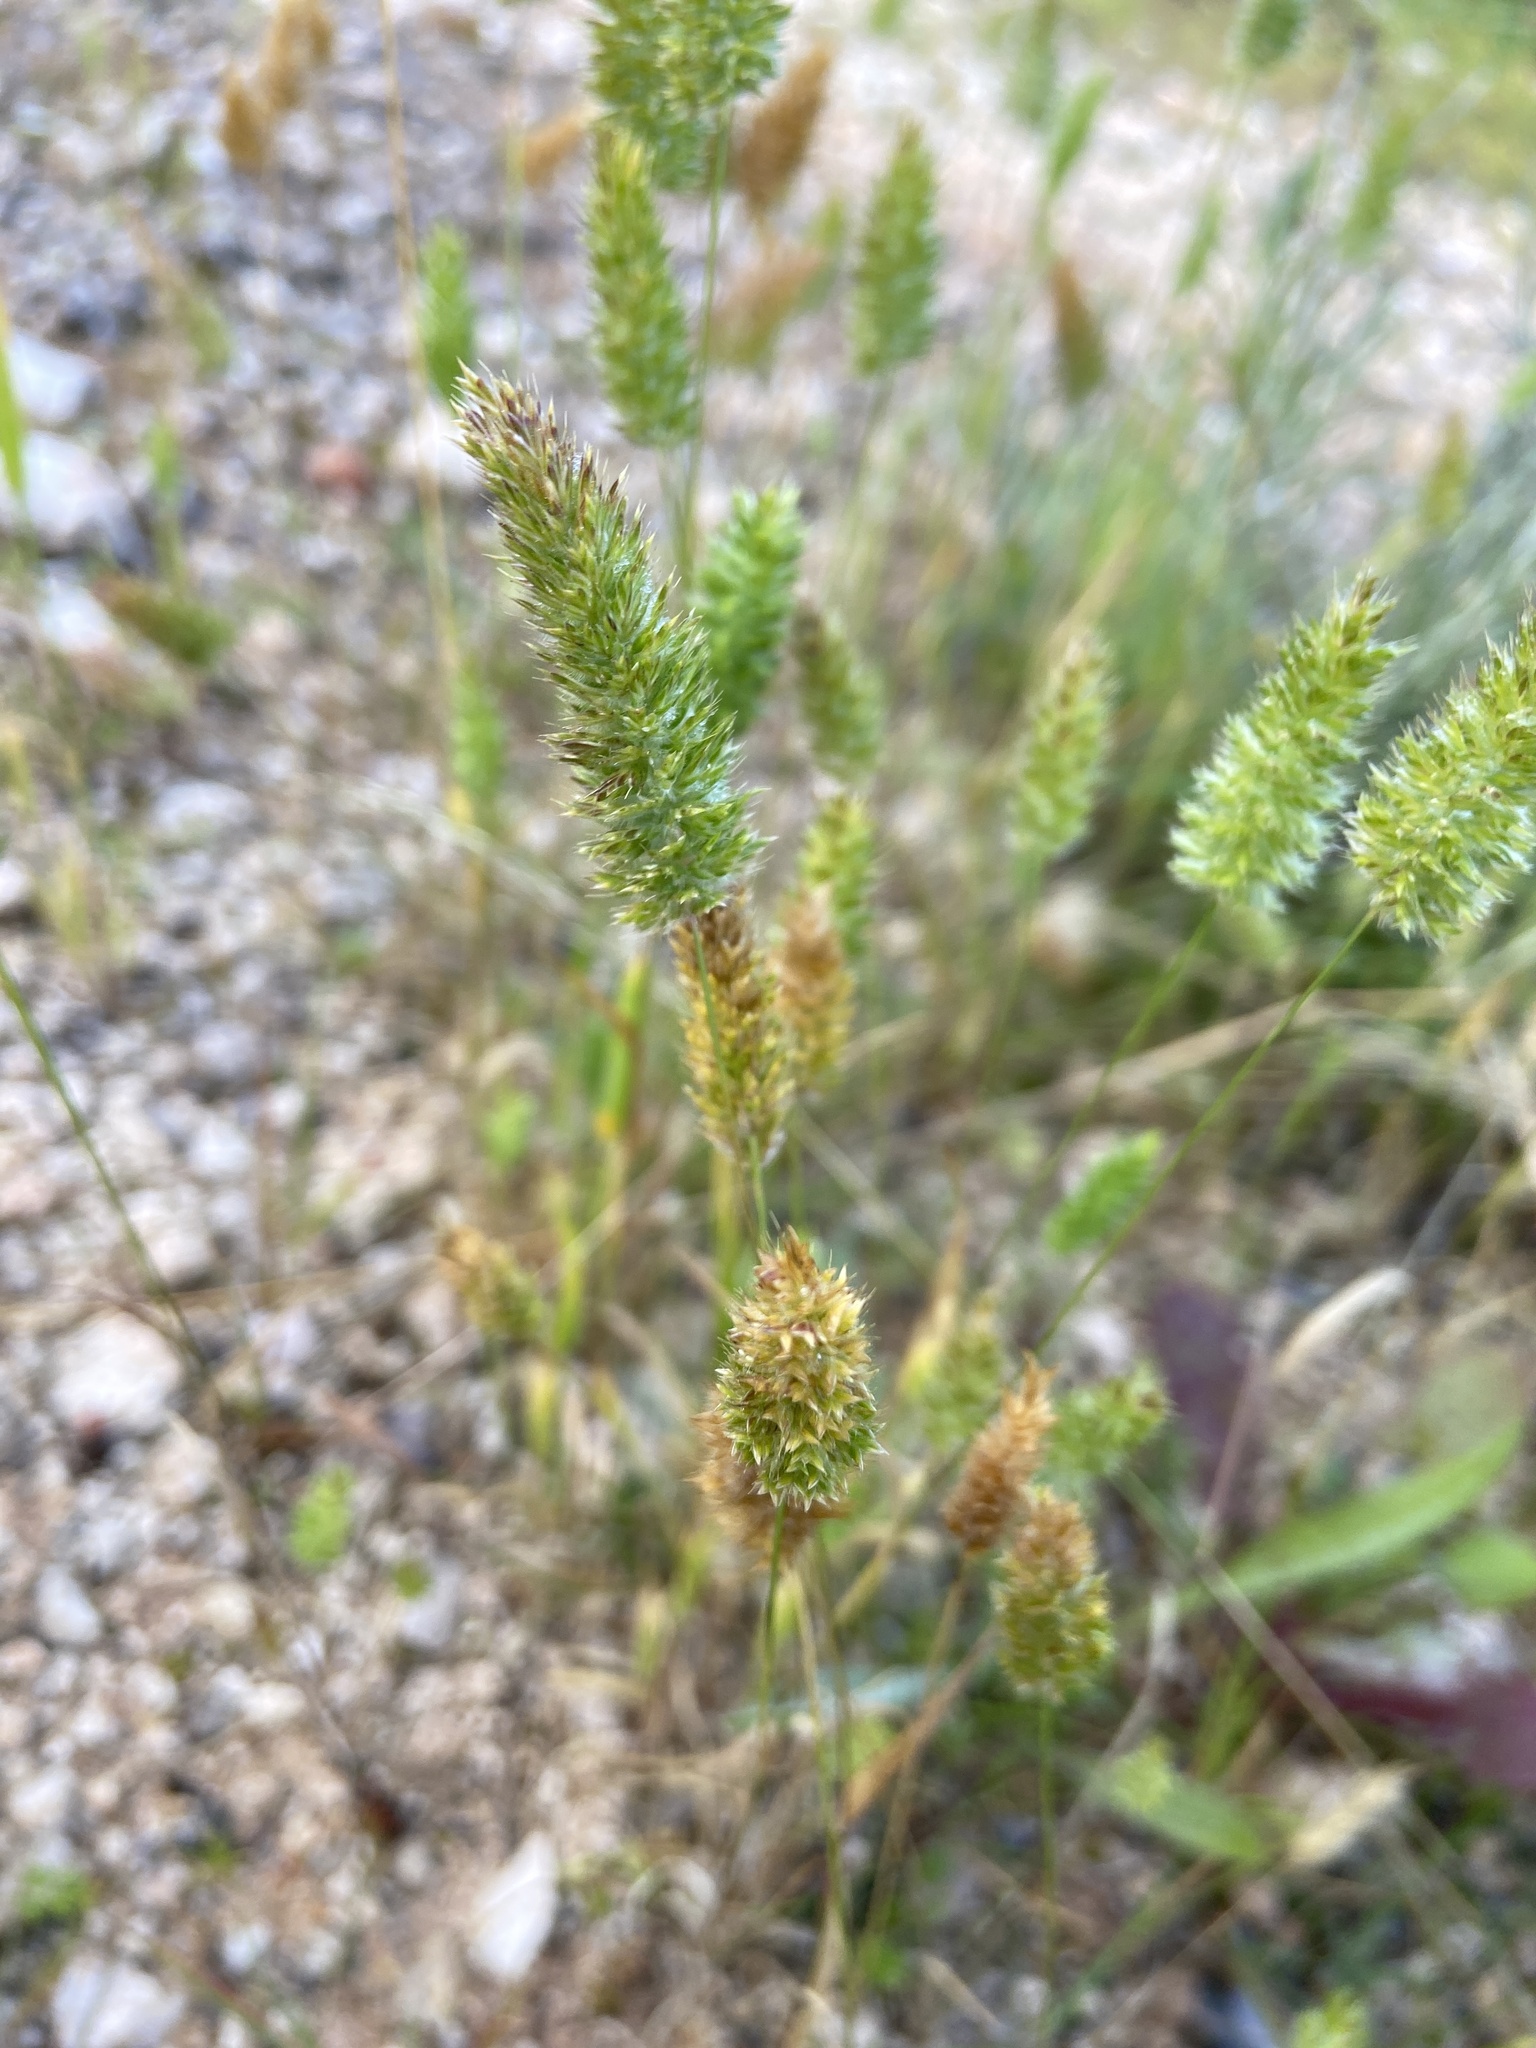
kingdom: Plantae
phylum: Tracheophyta
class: Liliopsida
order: Poales
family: Poaceae
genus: Rostraria
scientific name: Rostraria cristata
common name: Mediterranean hair-grass
